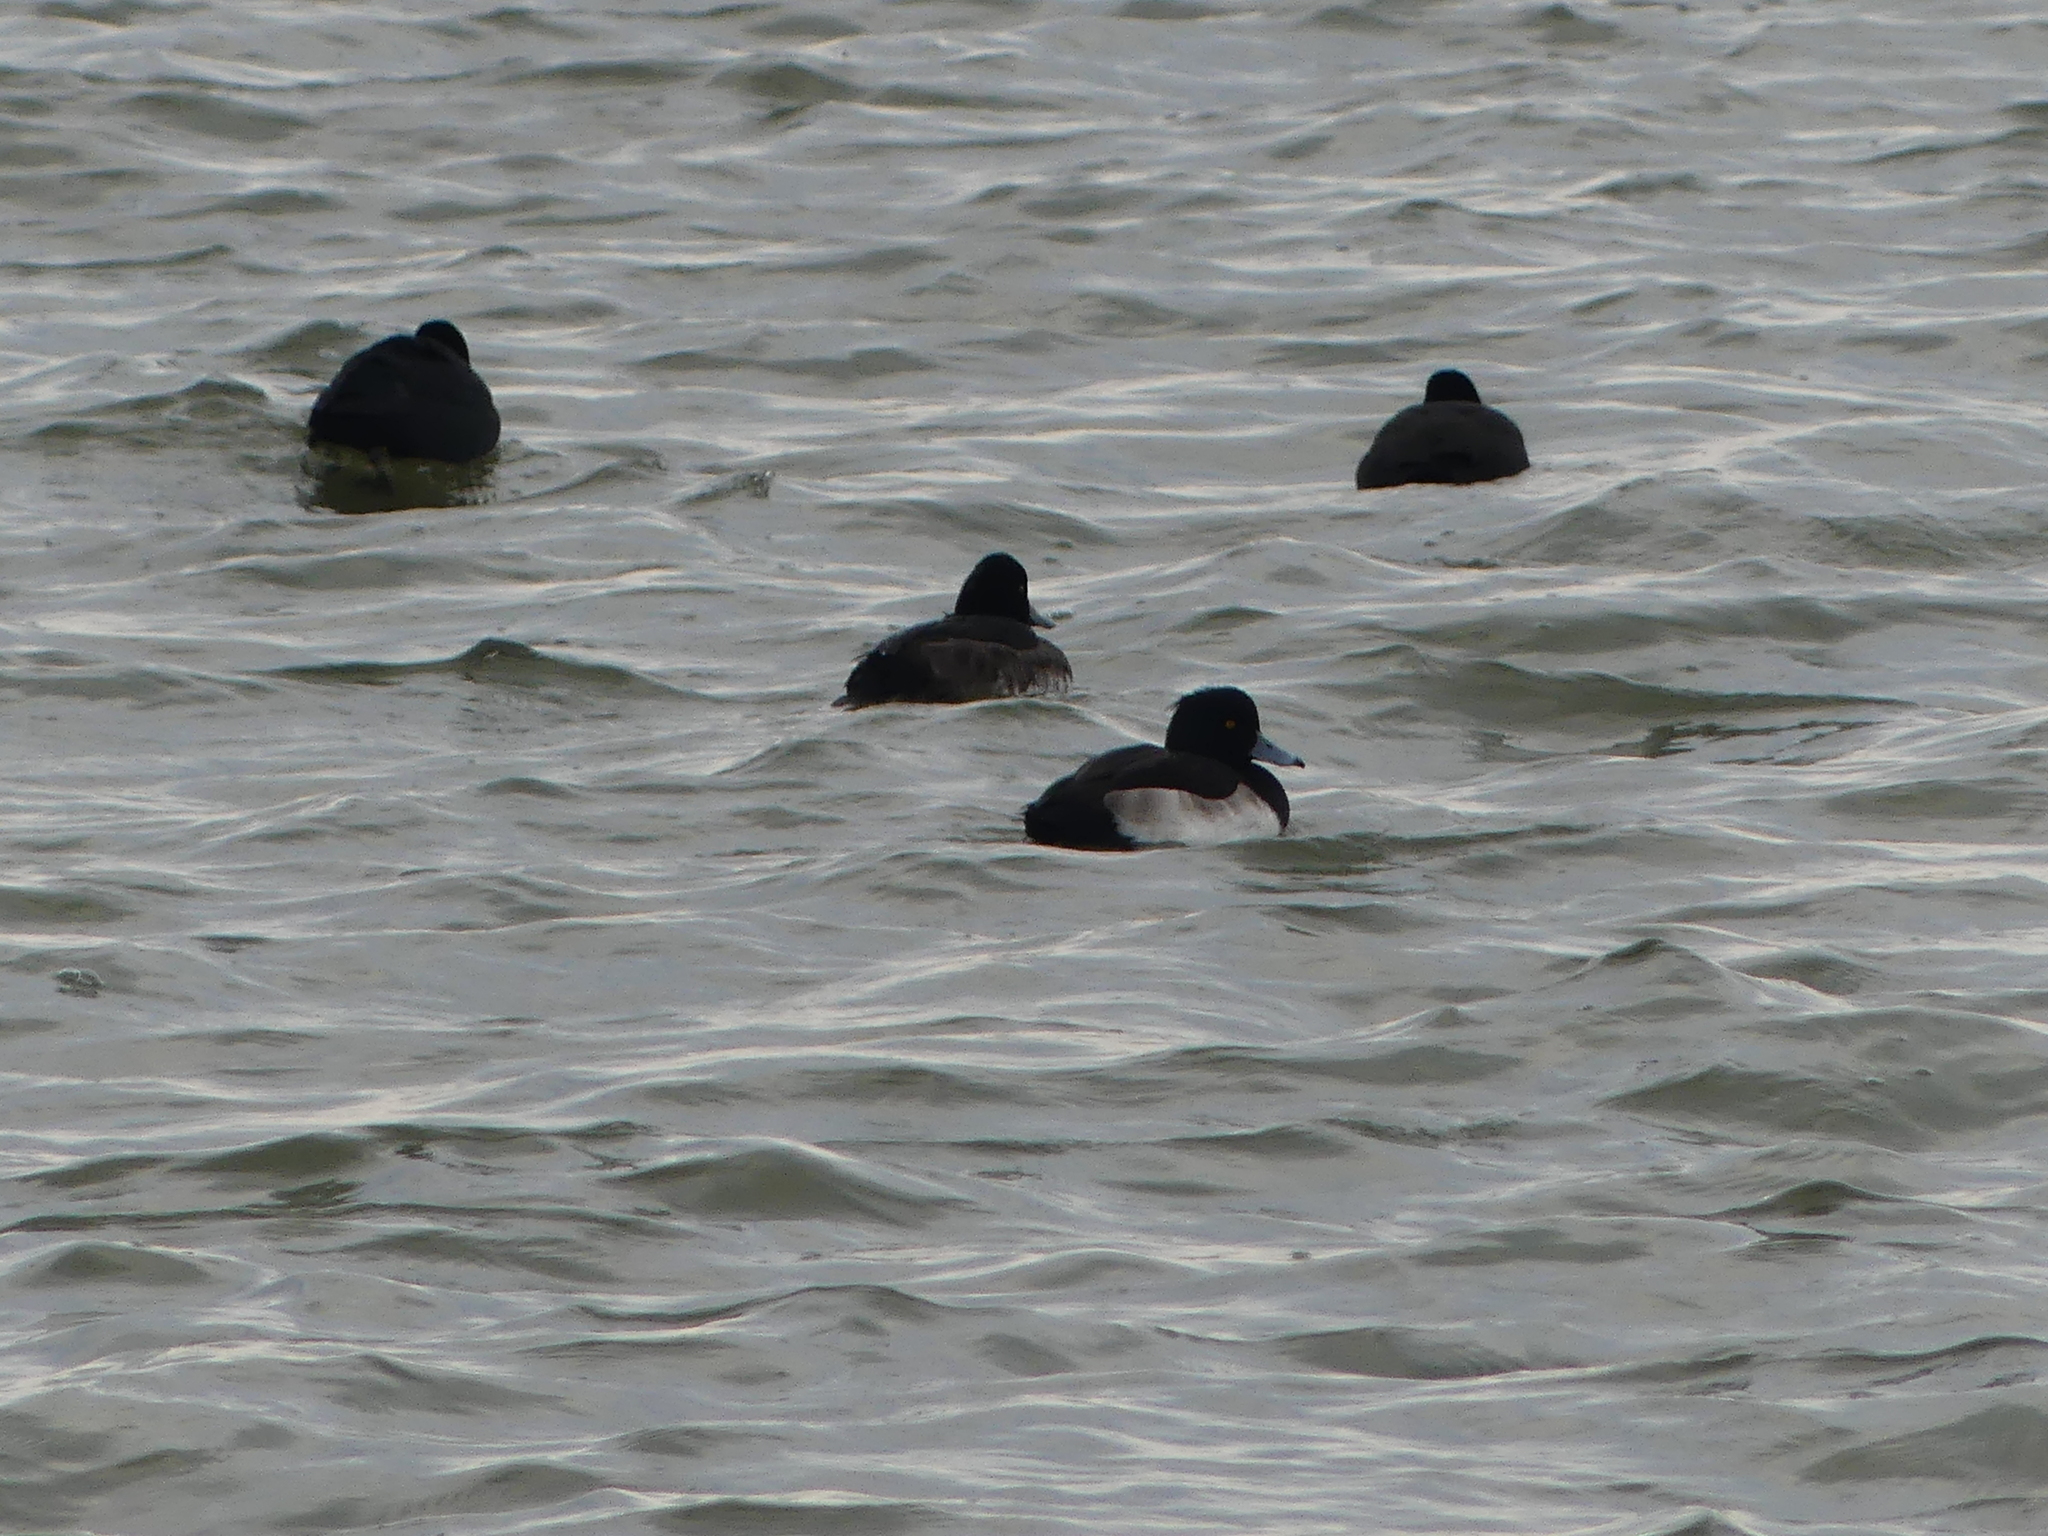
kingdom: Animalia
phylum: Chordata
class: Aves
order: Anseriformes
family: Anatidae
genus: Aythya
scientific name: Aythya fuligula
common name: Tufted duck
